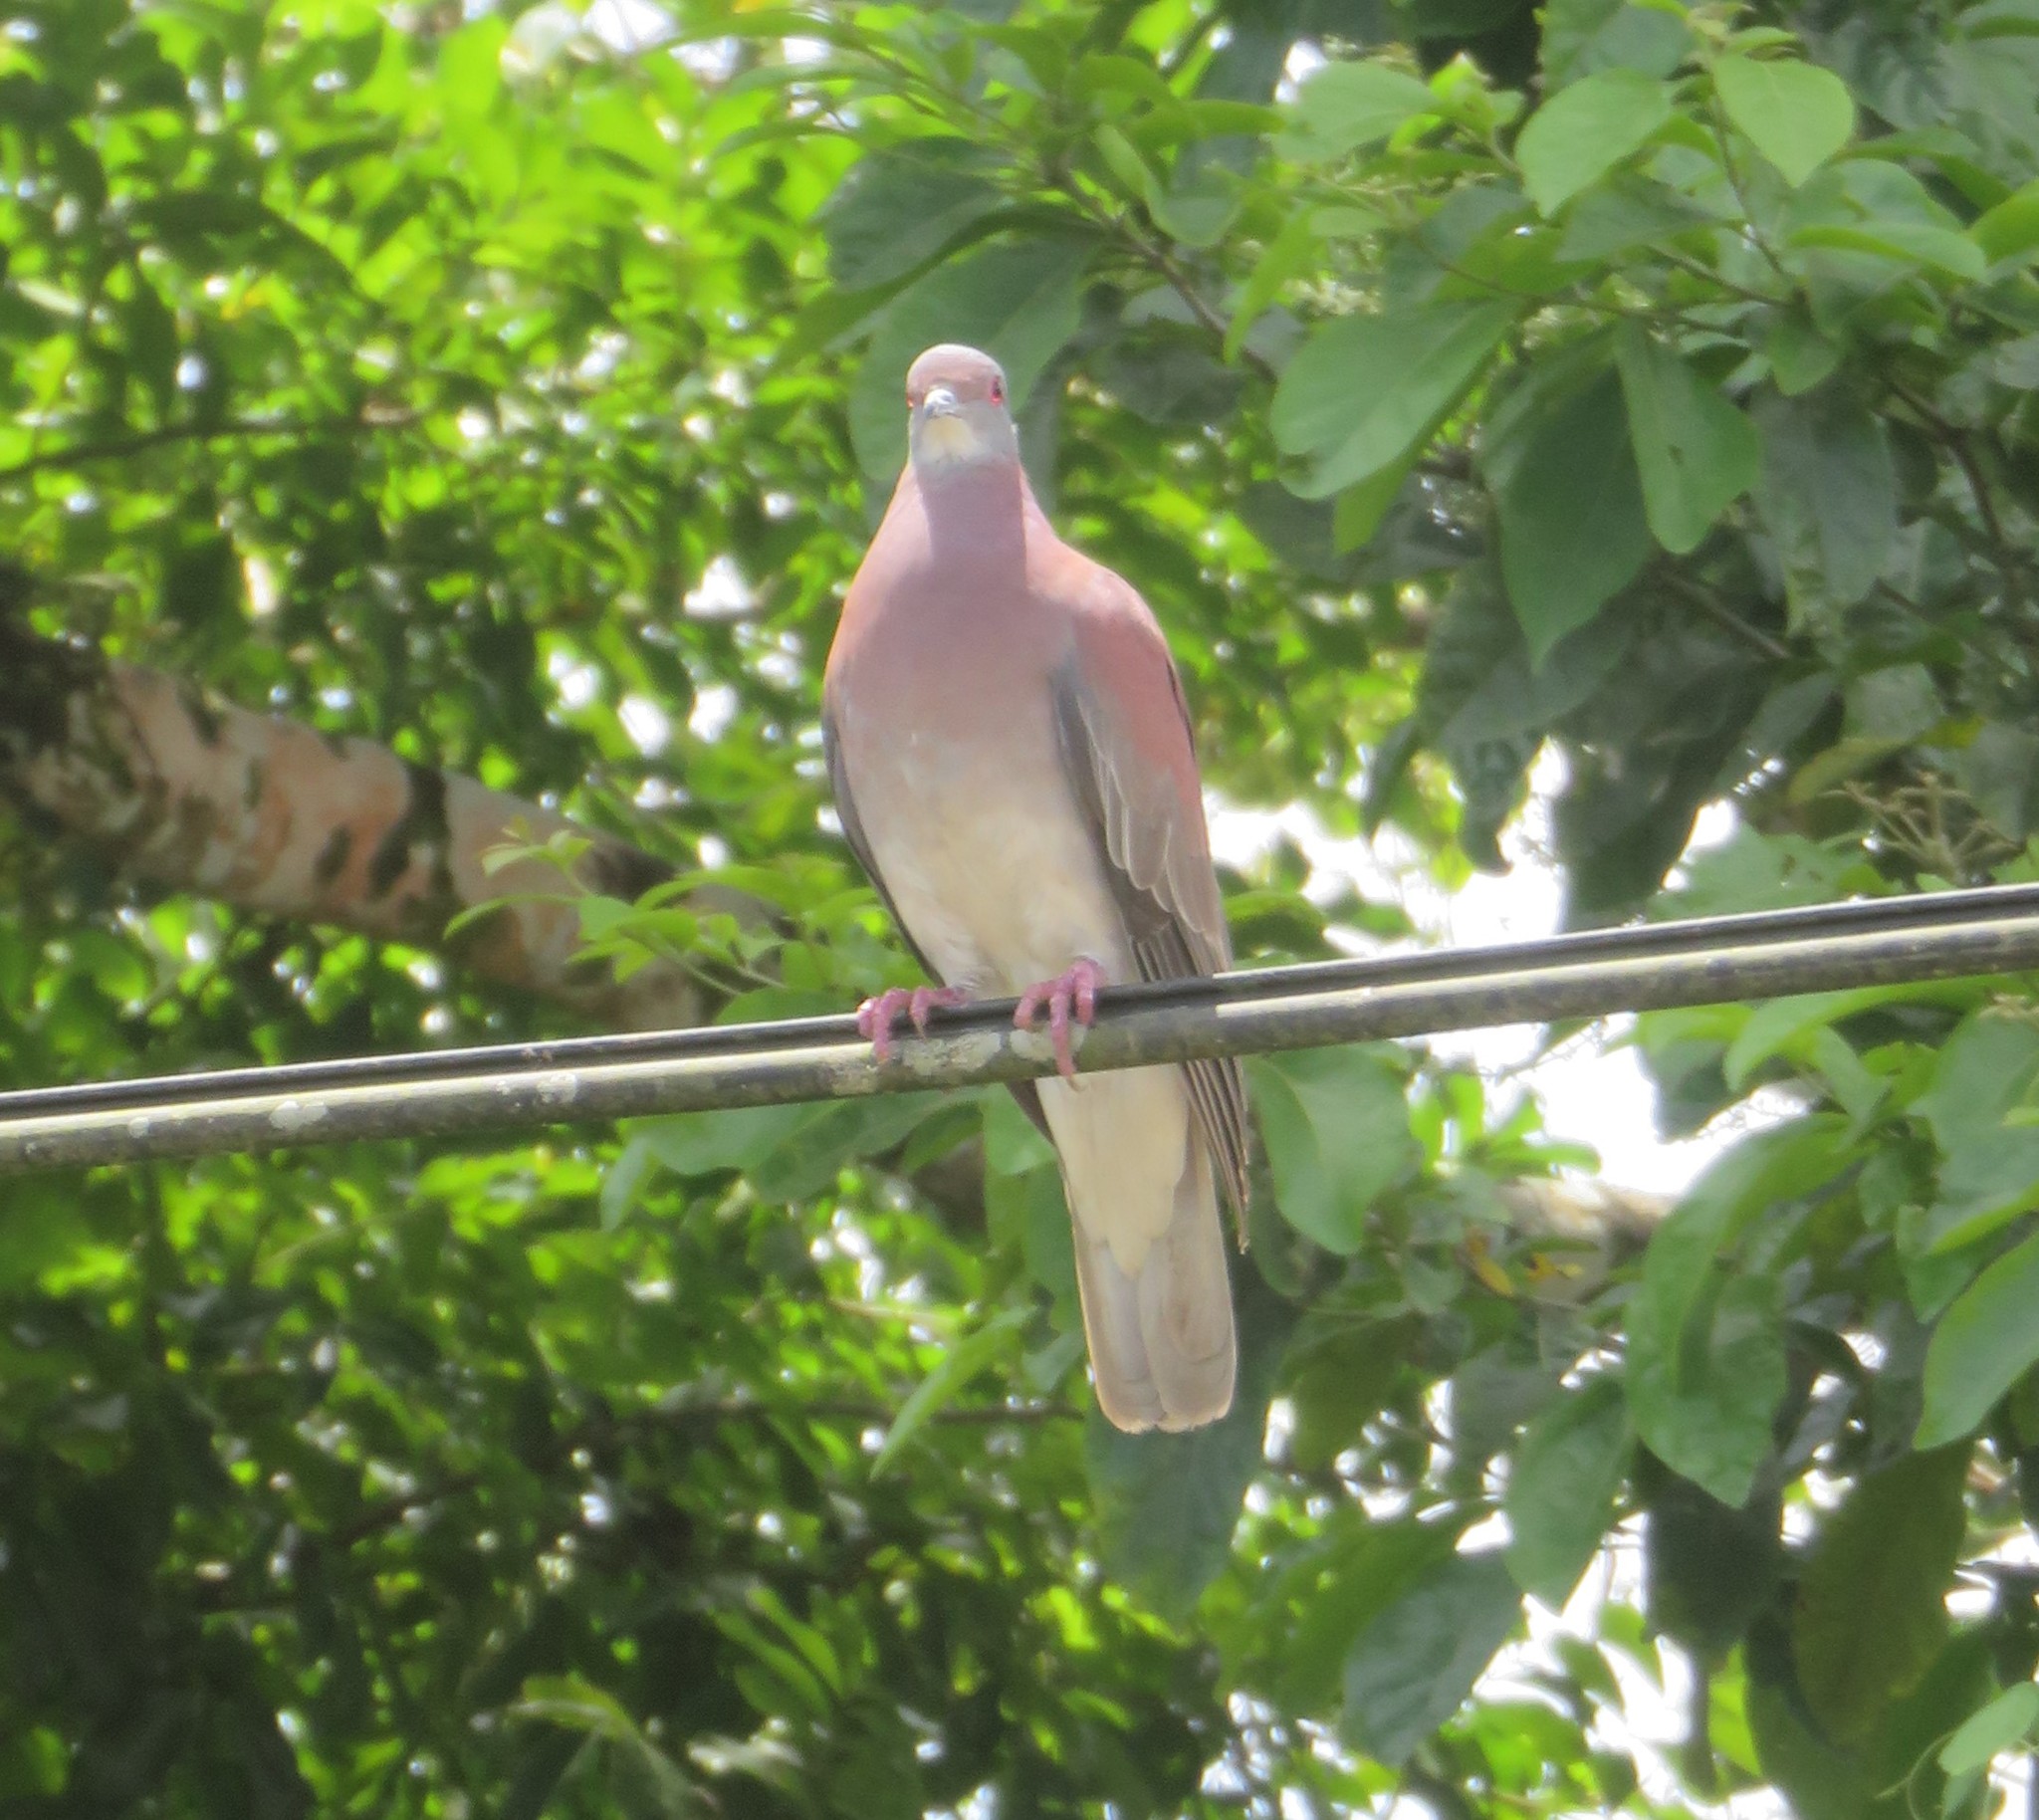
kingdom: Animalia
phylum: Chordata
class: Aves
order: Columbiformes
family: Columbidae
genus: Patagioenas
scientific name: Patagioenas cayennensis
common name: Pale-vented pigeon
